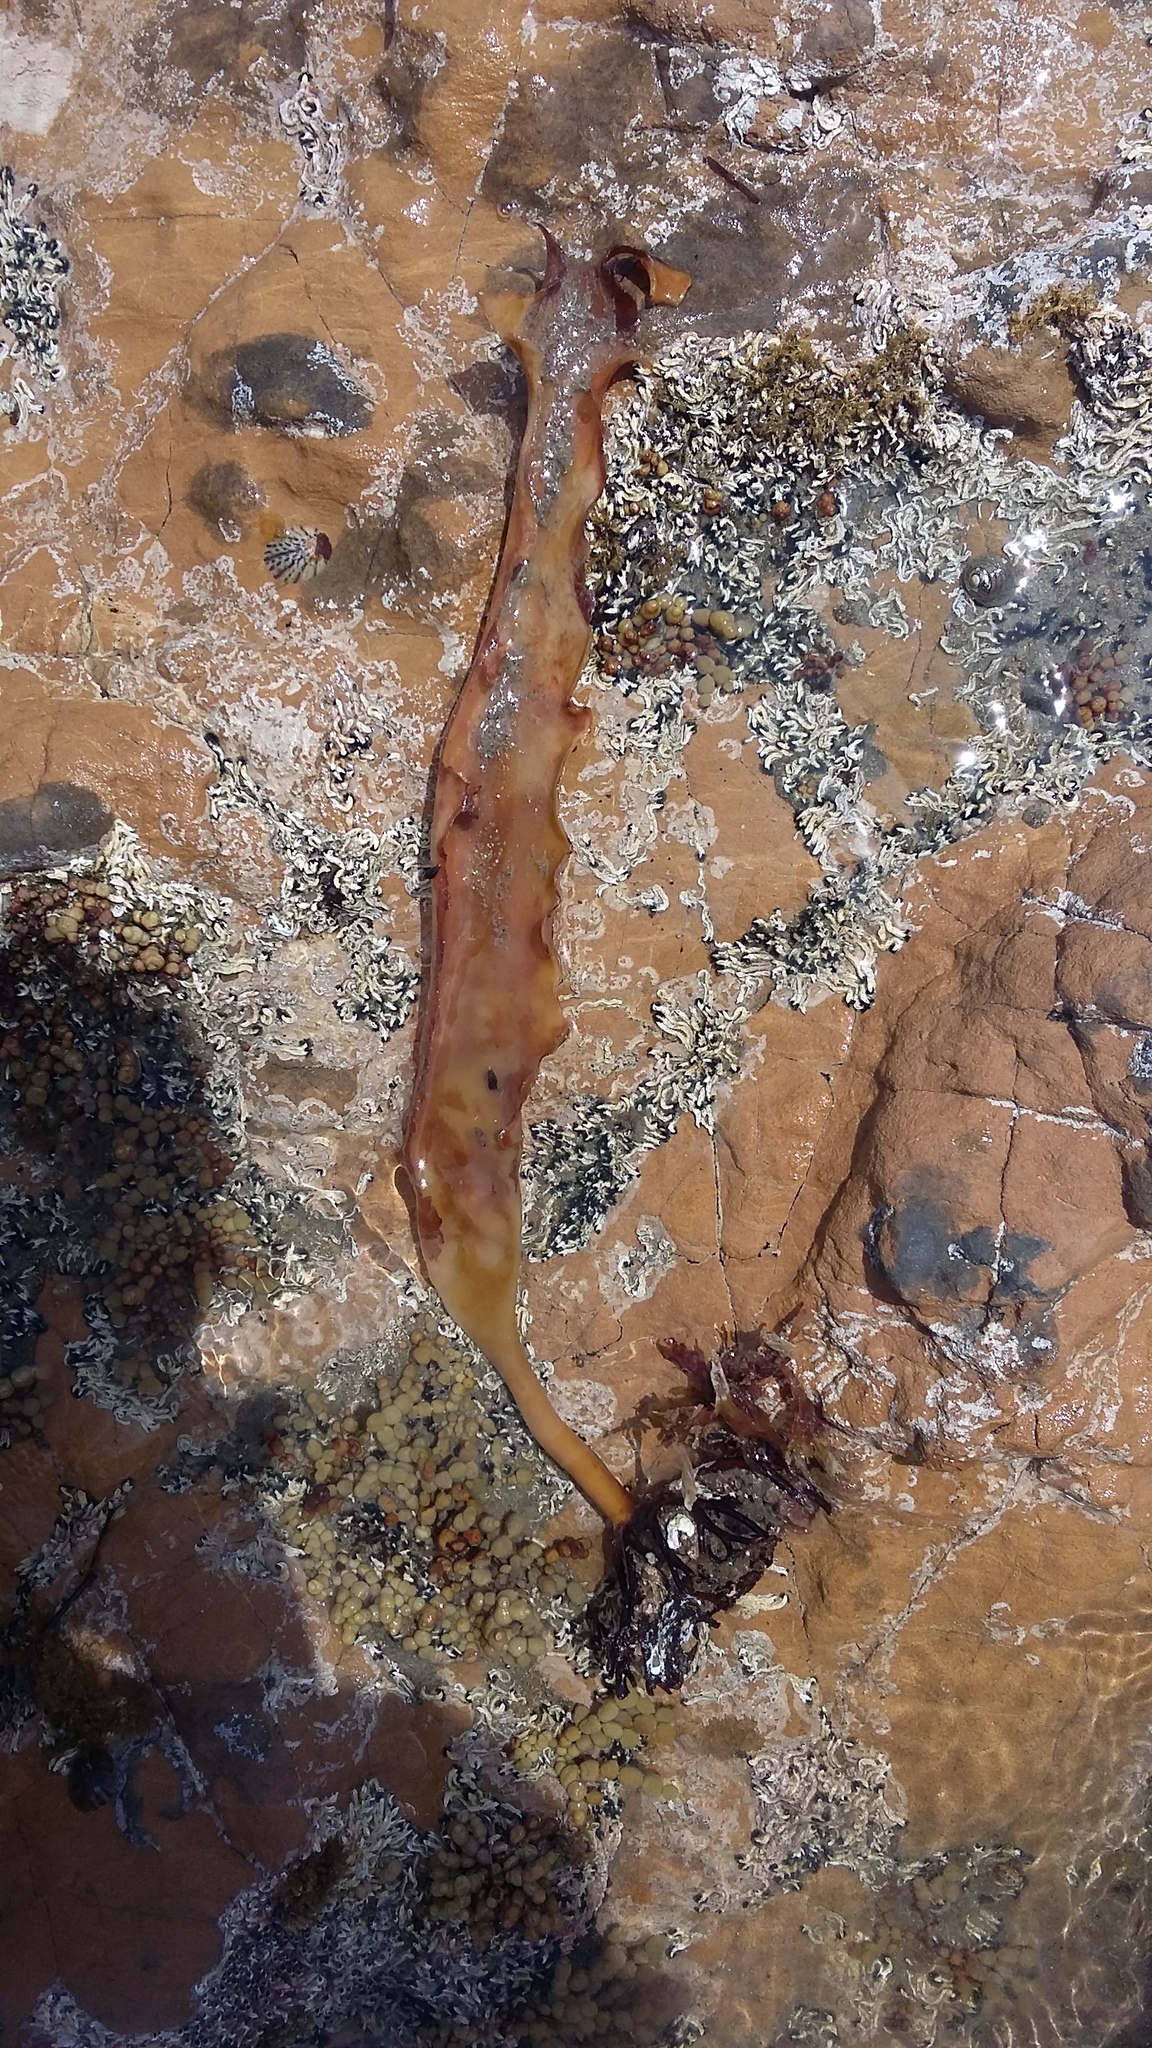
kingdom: Chromista
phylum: Ochrophyta
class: Phaeophyceae
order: Laminariales
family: Lessoniaceae
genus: Ecklonia
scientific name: Ecklonia radiata
